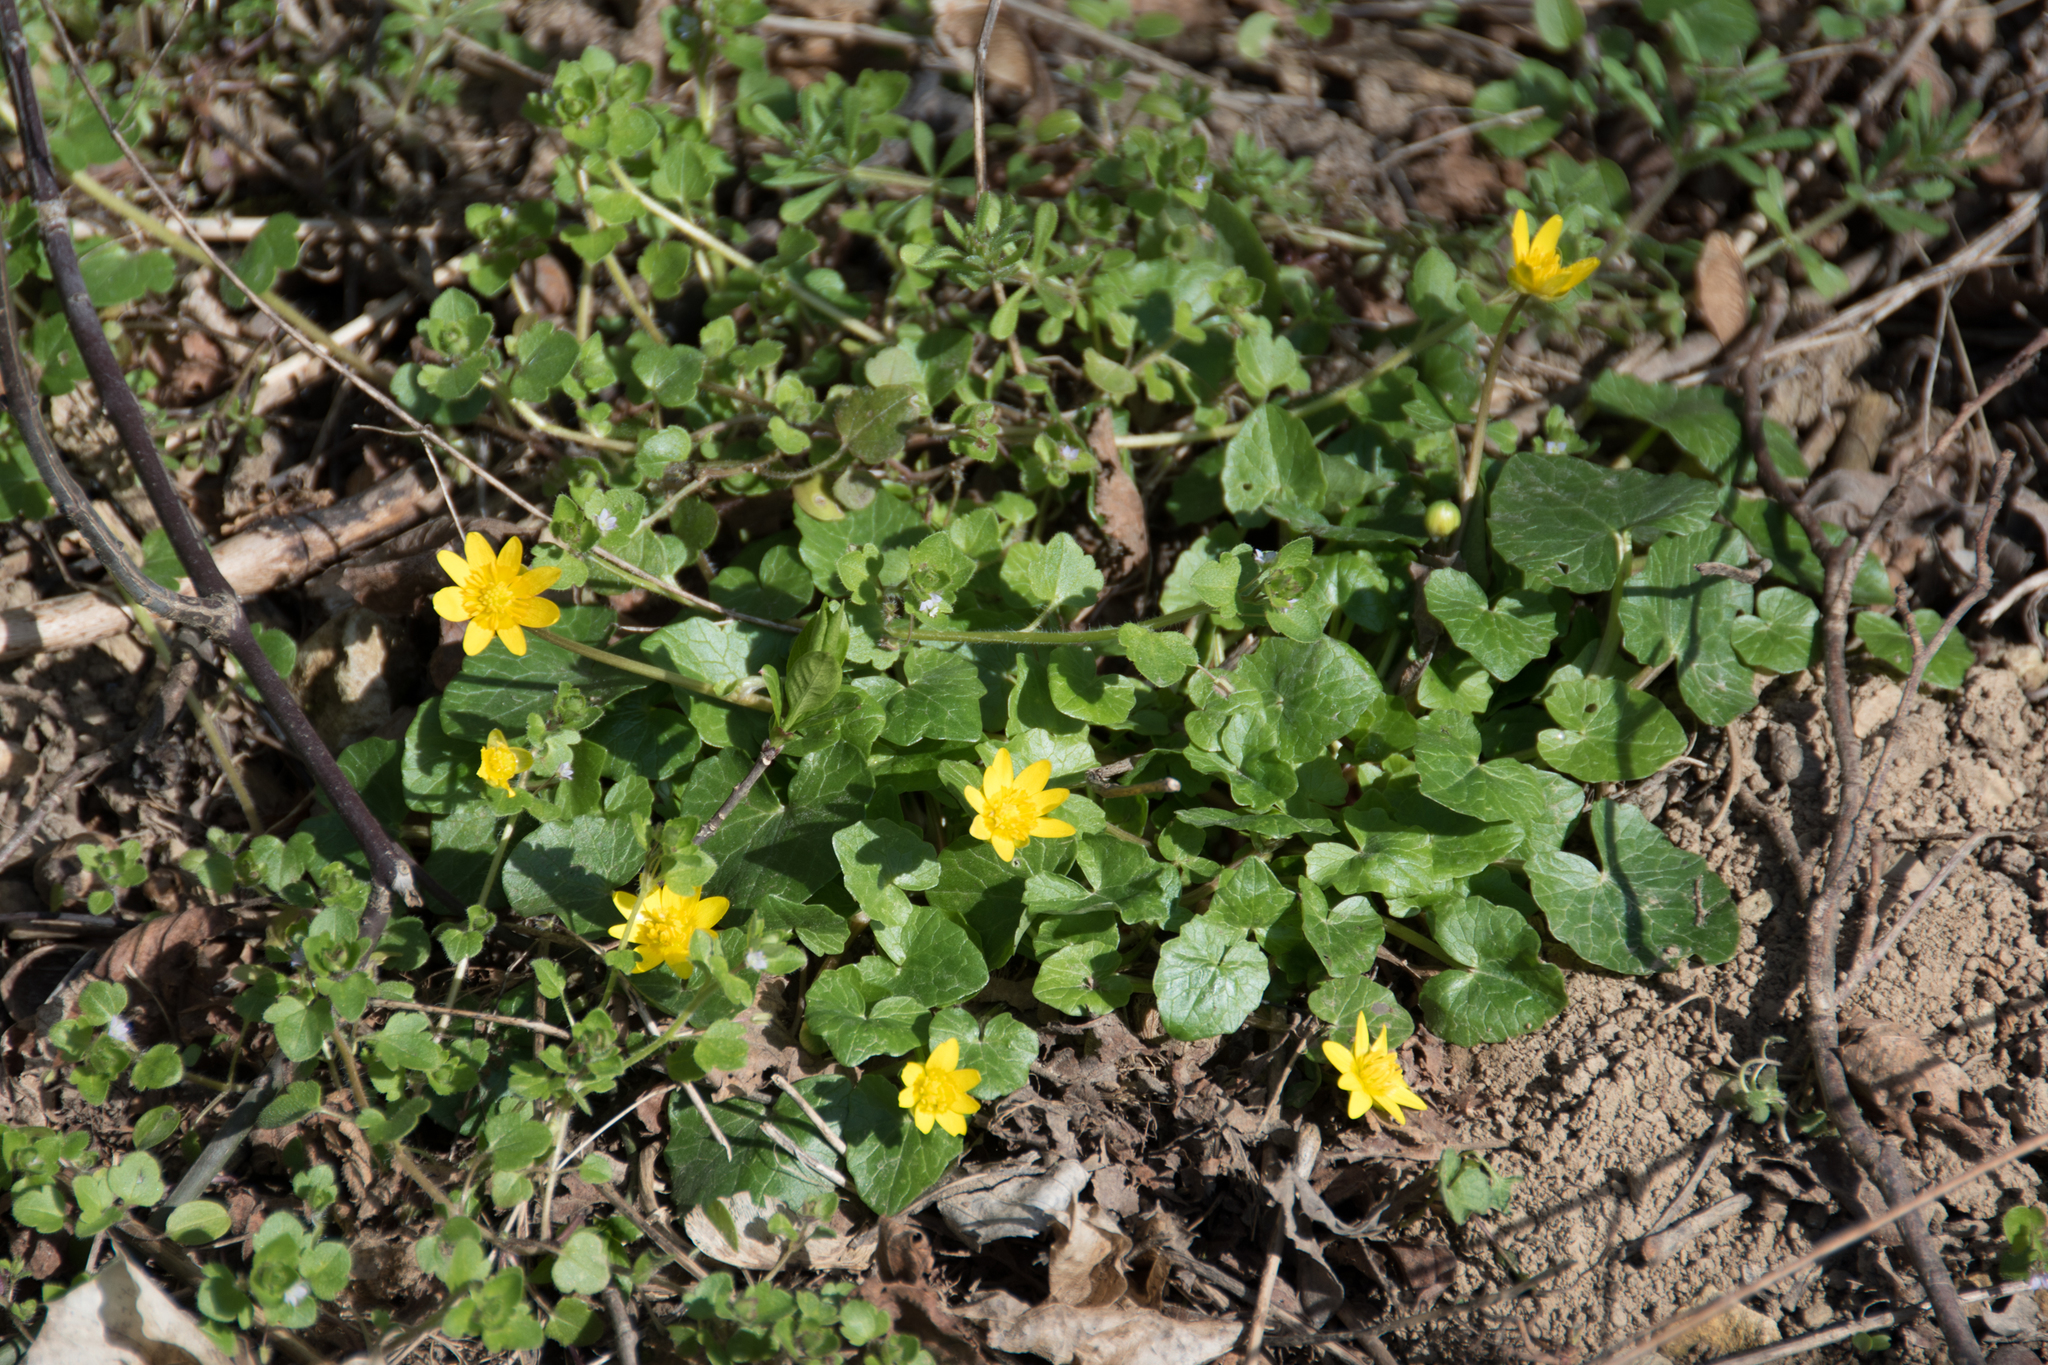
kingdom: Plantae
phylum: Tracheophyta
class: Magnoliopsida
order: Ranunculales
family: Ranunculaceae
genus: Ficaria
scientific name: Ficaria verna
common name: Lesser celandine
